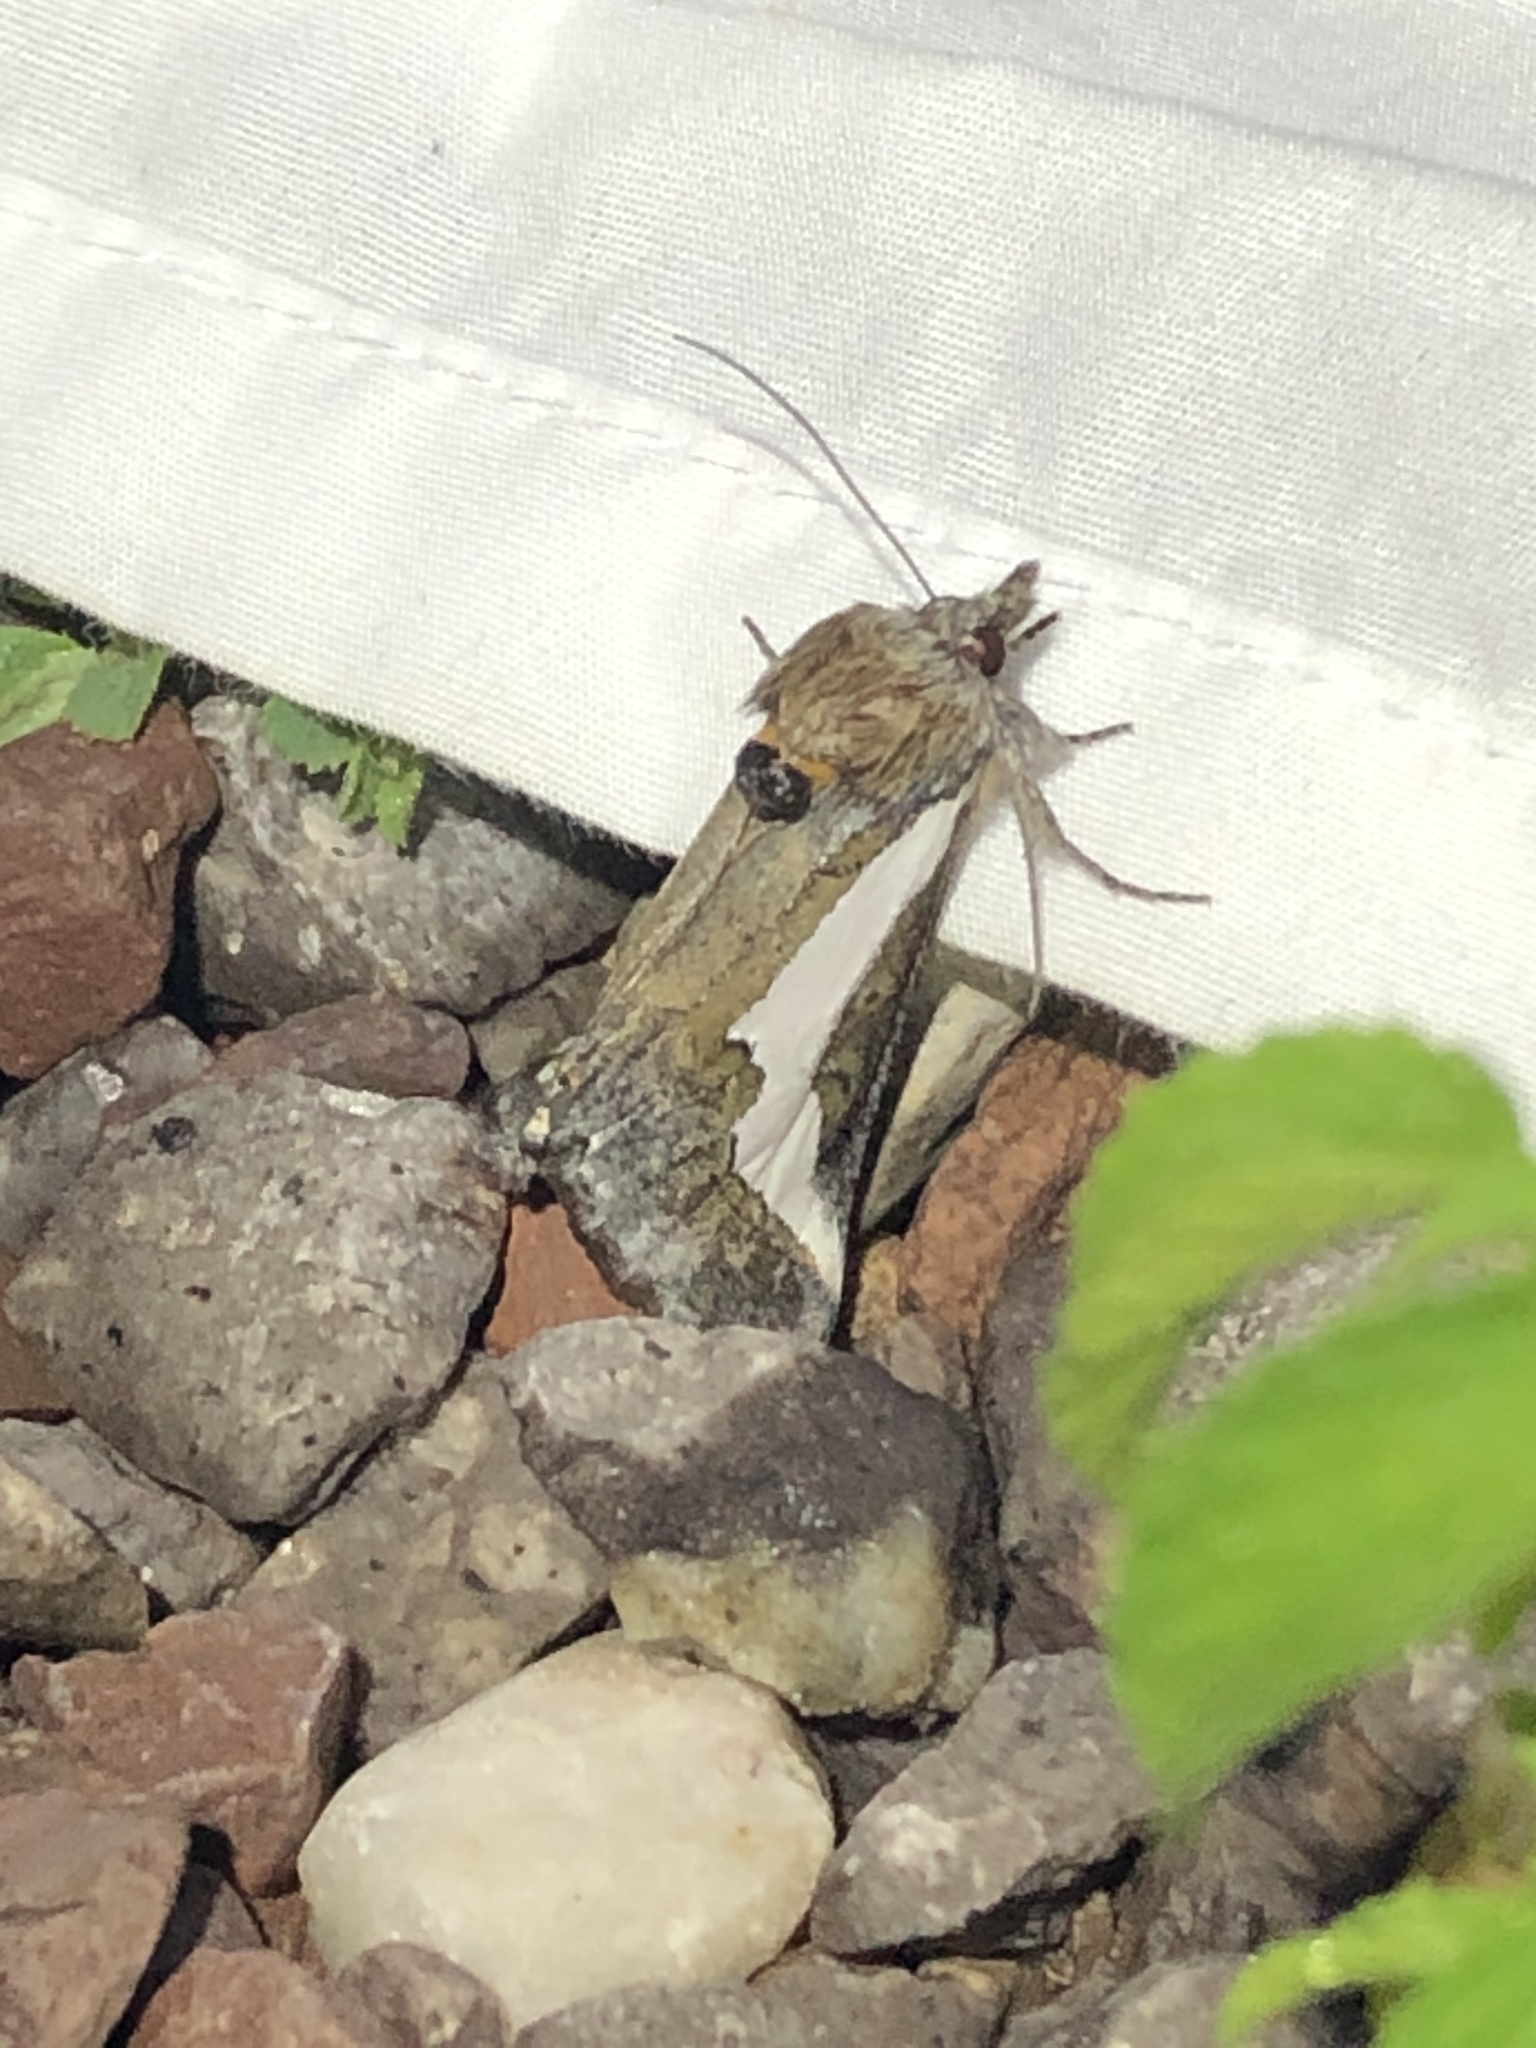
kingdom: Animalia
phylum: Arthropoda
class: Insecta
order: Lepidoptera
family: Noctuidae
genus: Euscirrhopterus
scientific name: Euscirrhopterus cosyra
